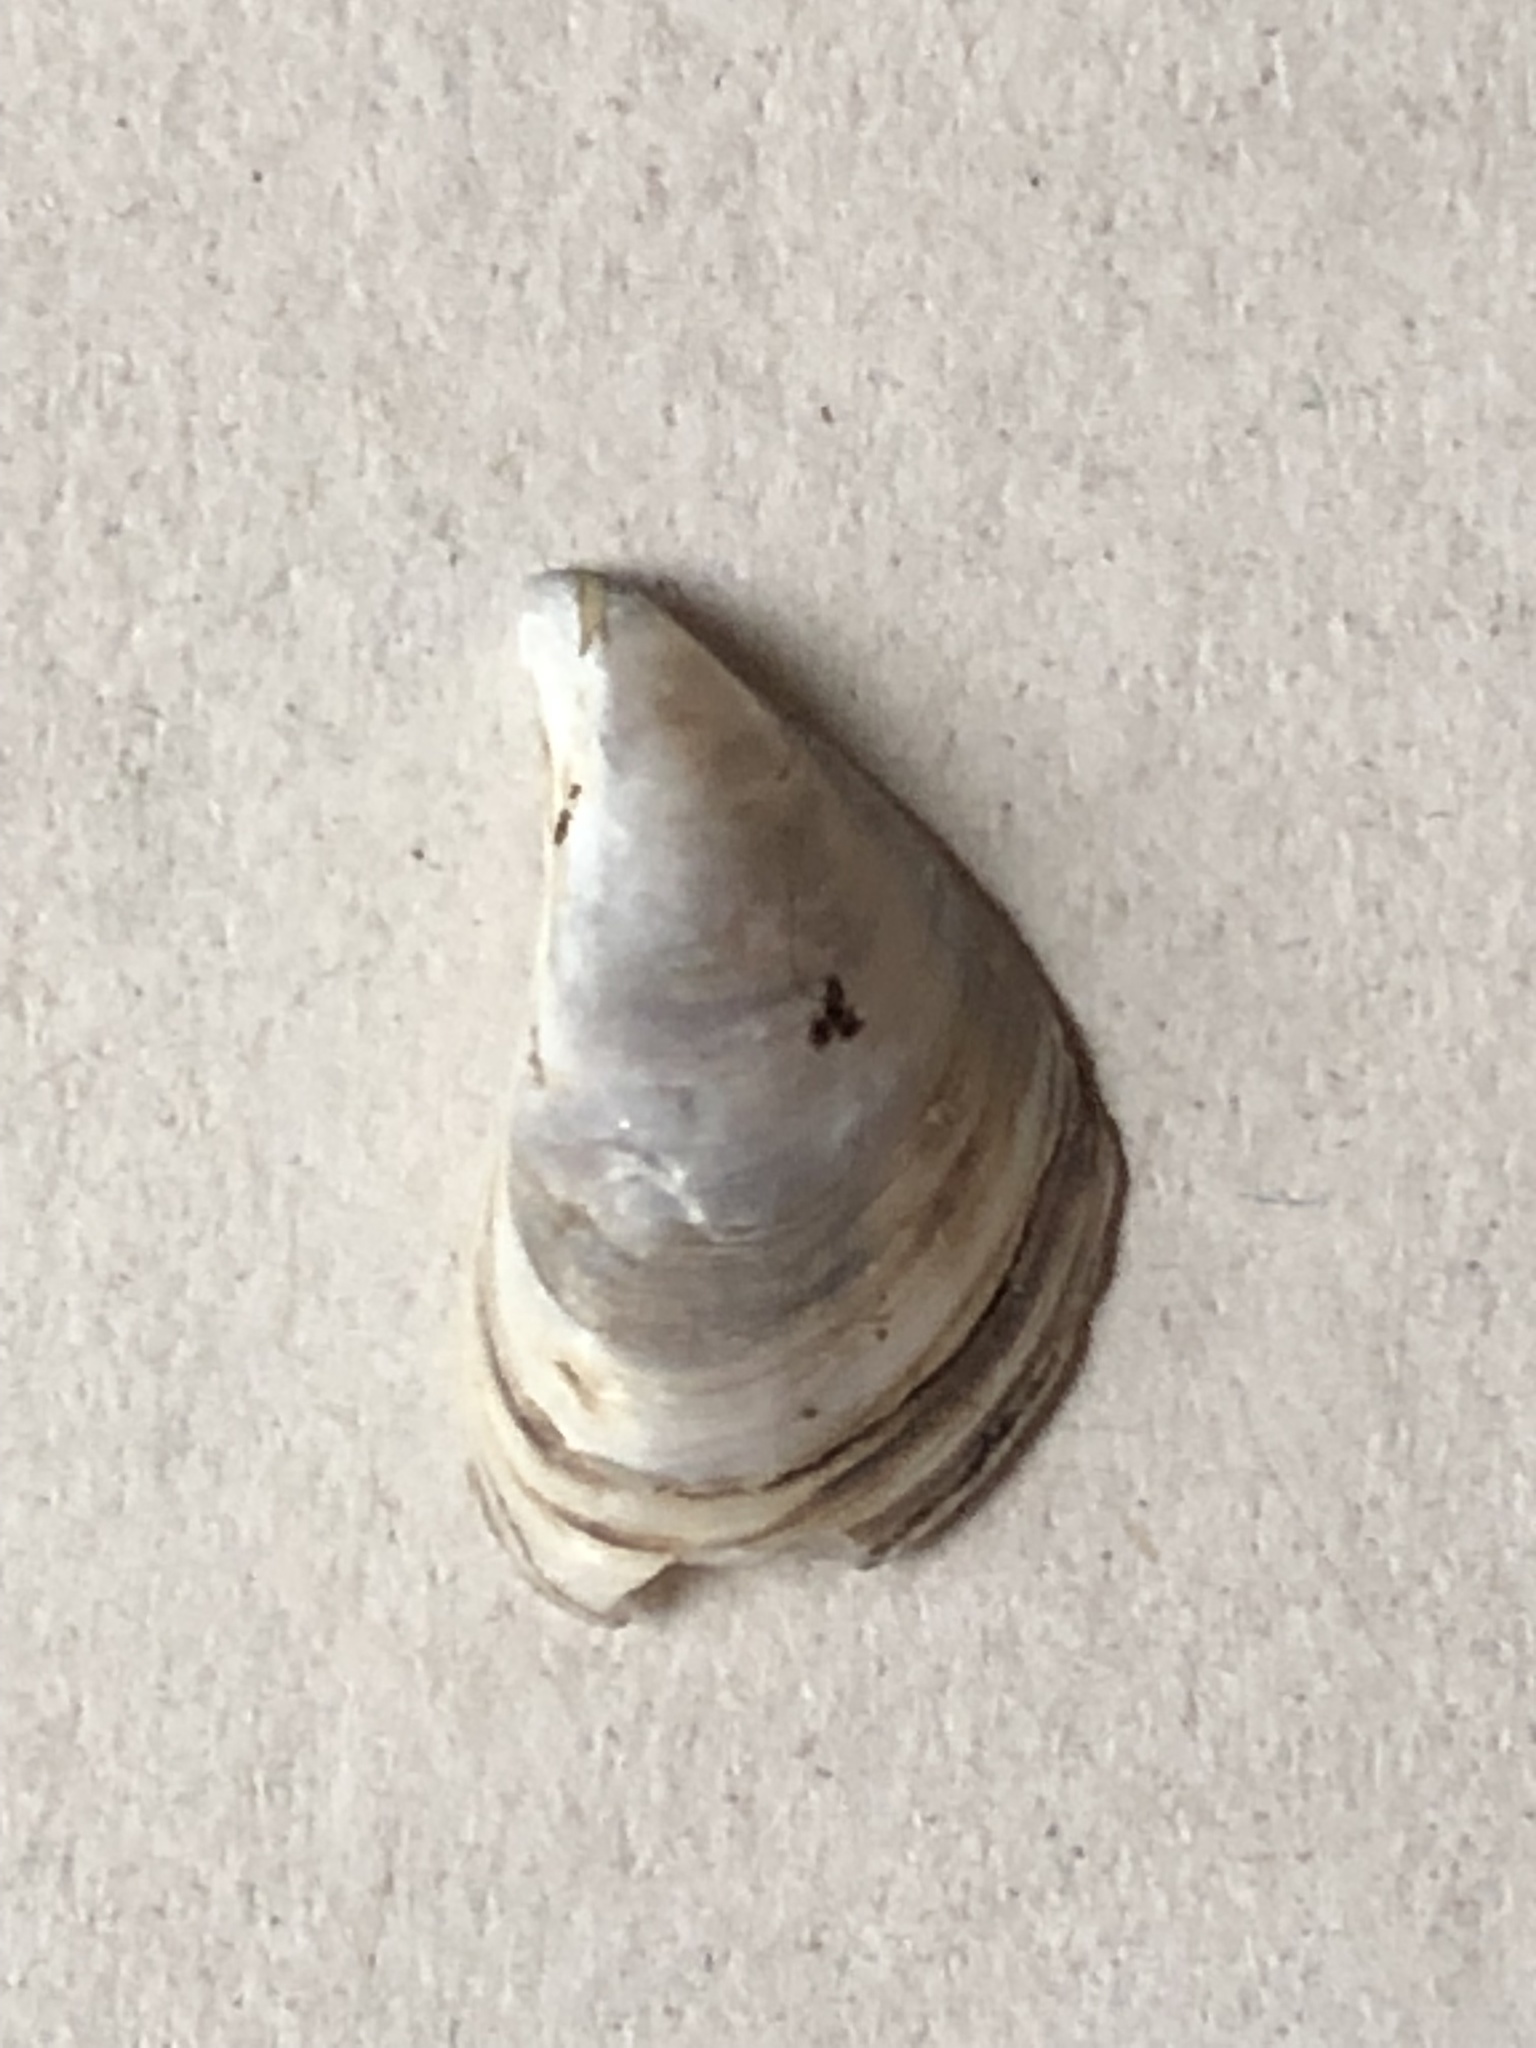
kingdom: Animalia
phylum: Mollusca
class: Bivalvia
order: Myida
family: Dreissenidae
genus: Dreissena
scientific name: Dreissena bugensis
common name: Quagga mussel
